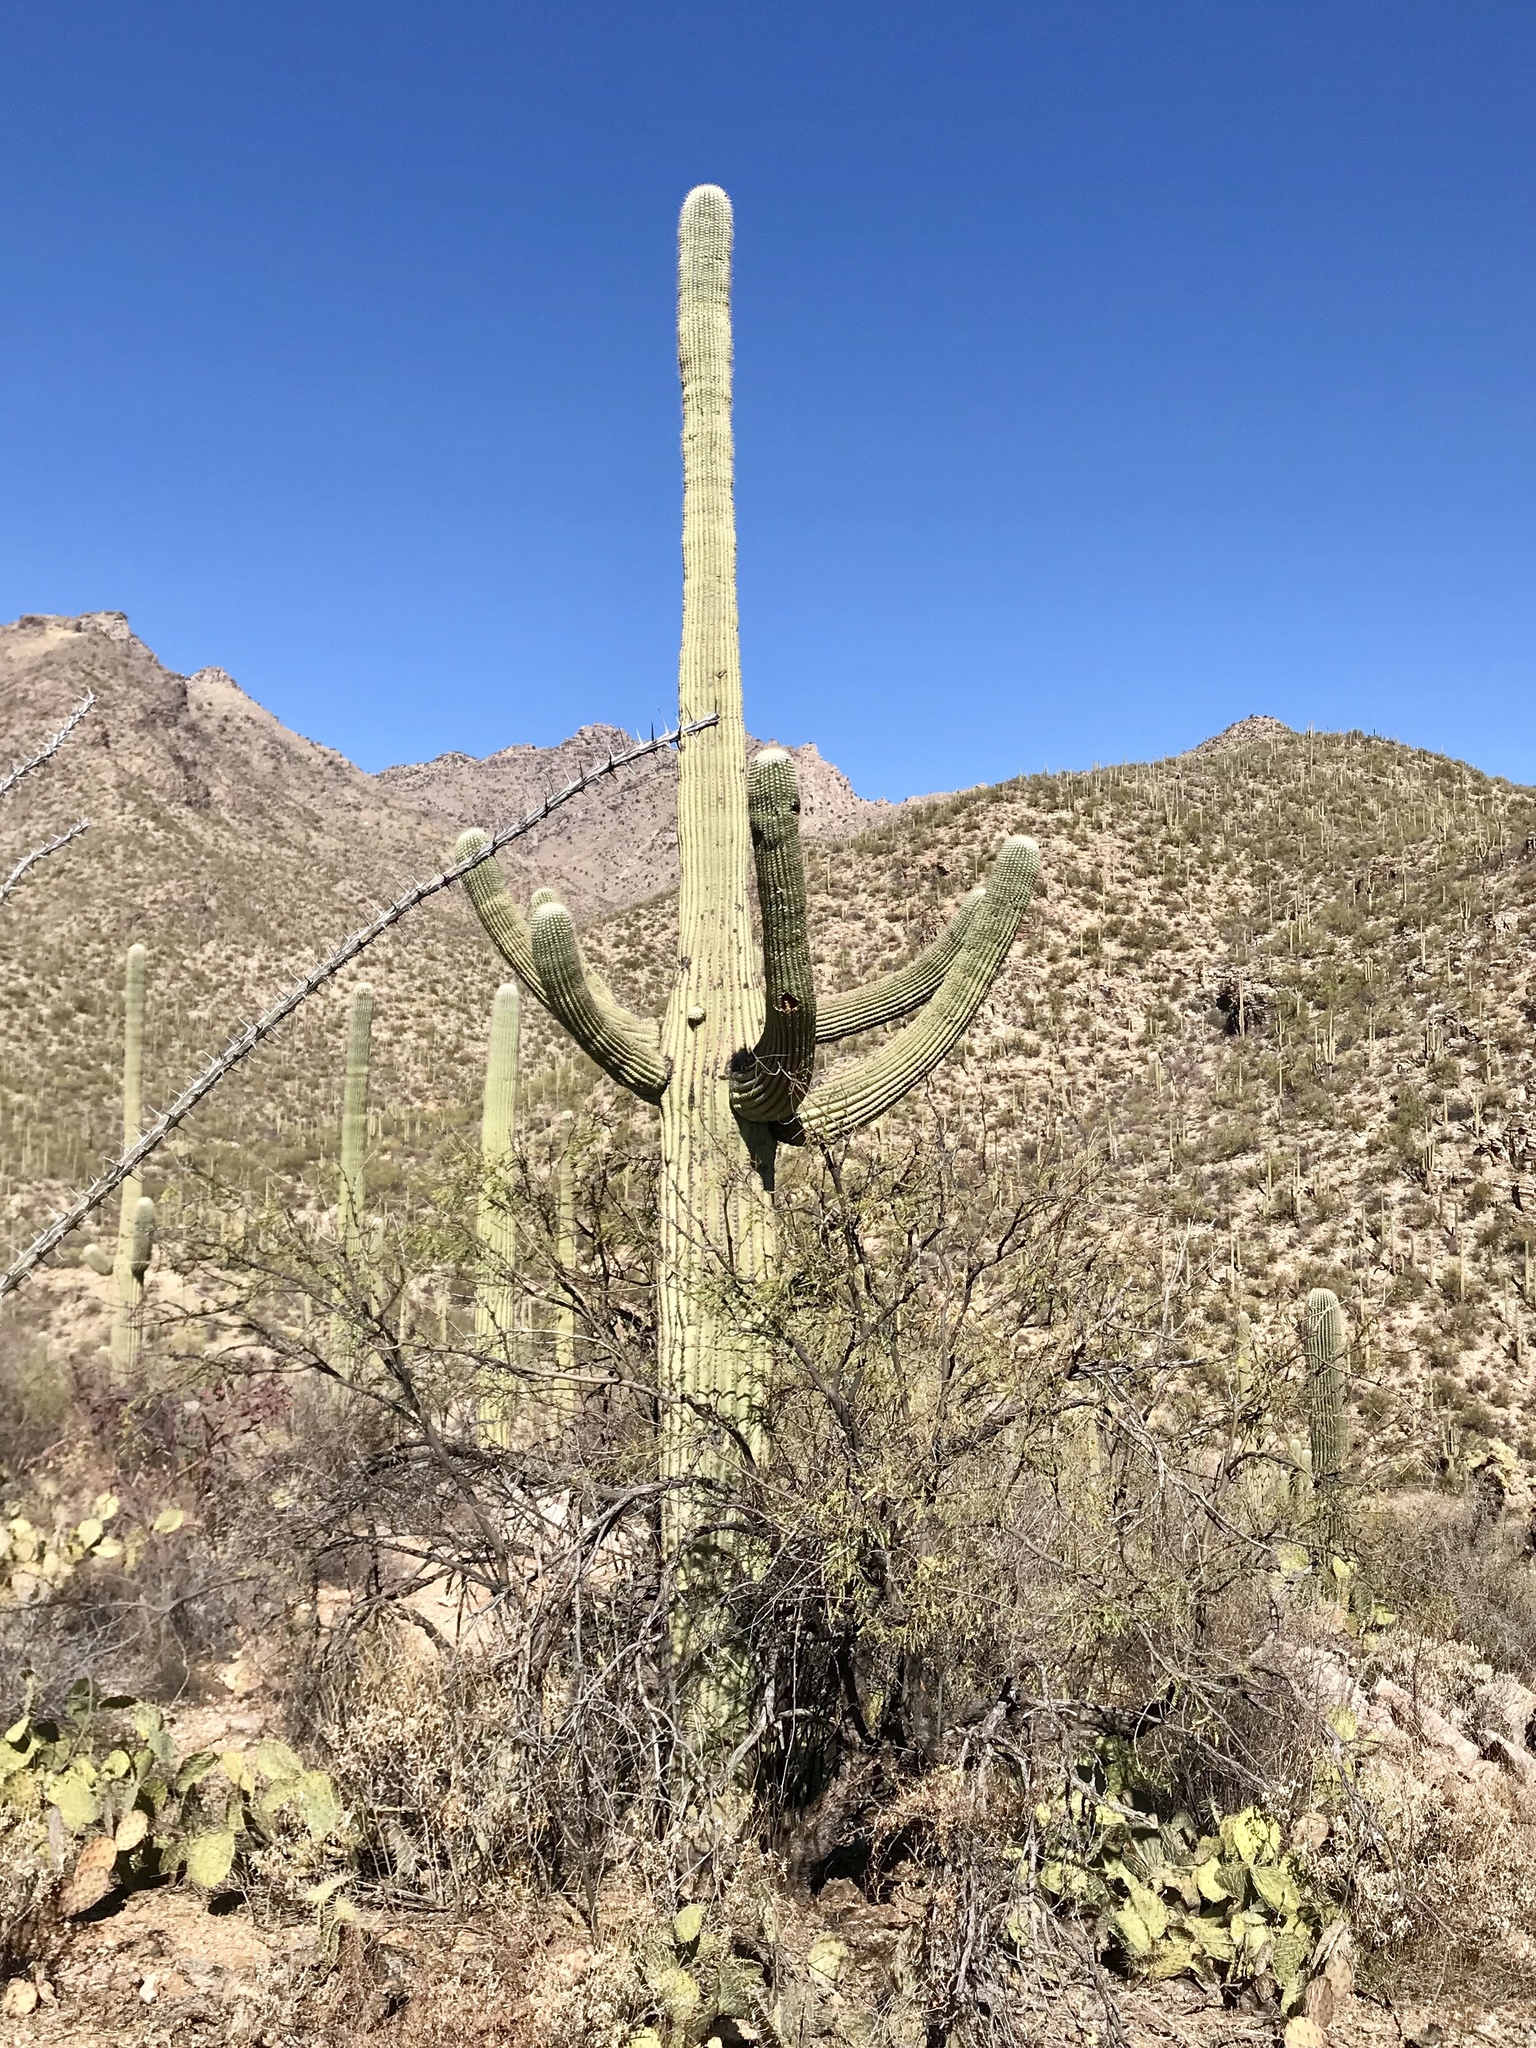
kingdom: Plantae
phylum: Tracheophyta
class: Magnoliopsida
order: Caryophyllales
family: Cactaceae
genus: Carnegiea
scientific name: Carnegiea gigantea
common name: Saguaro
